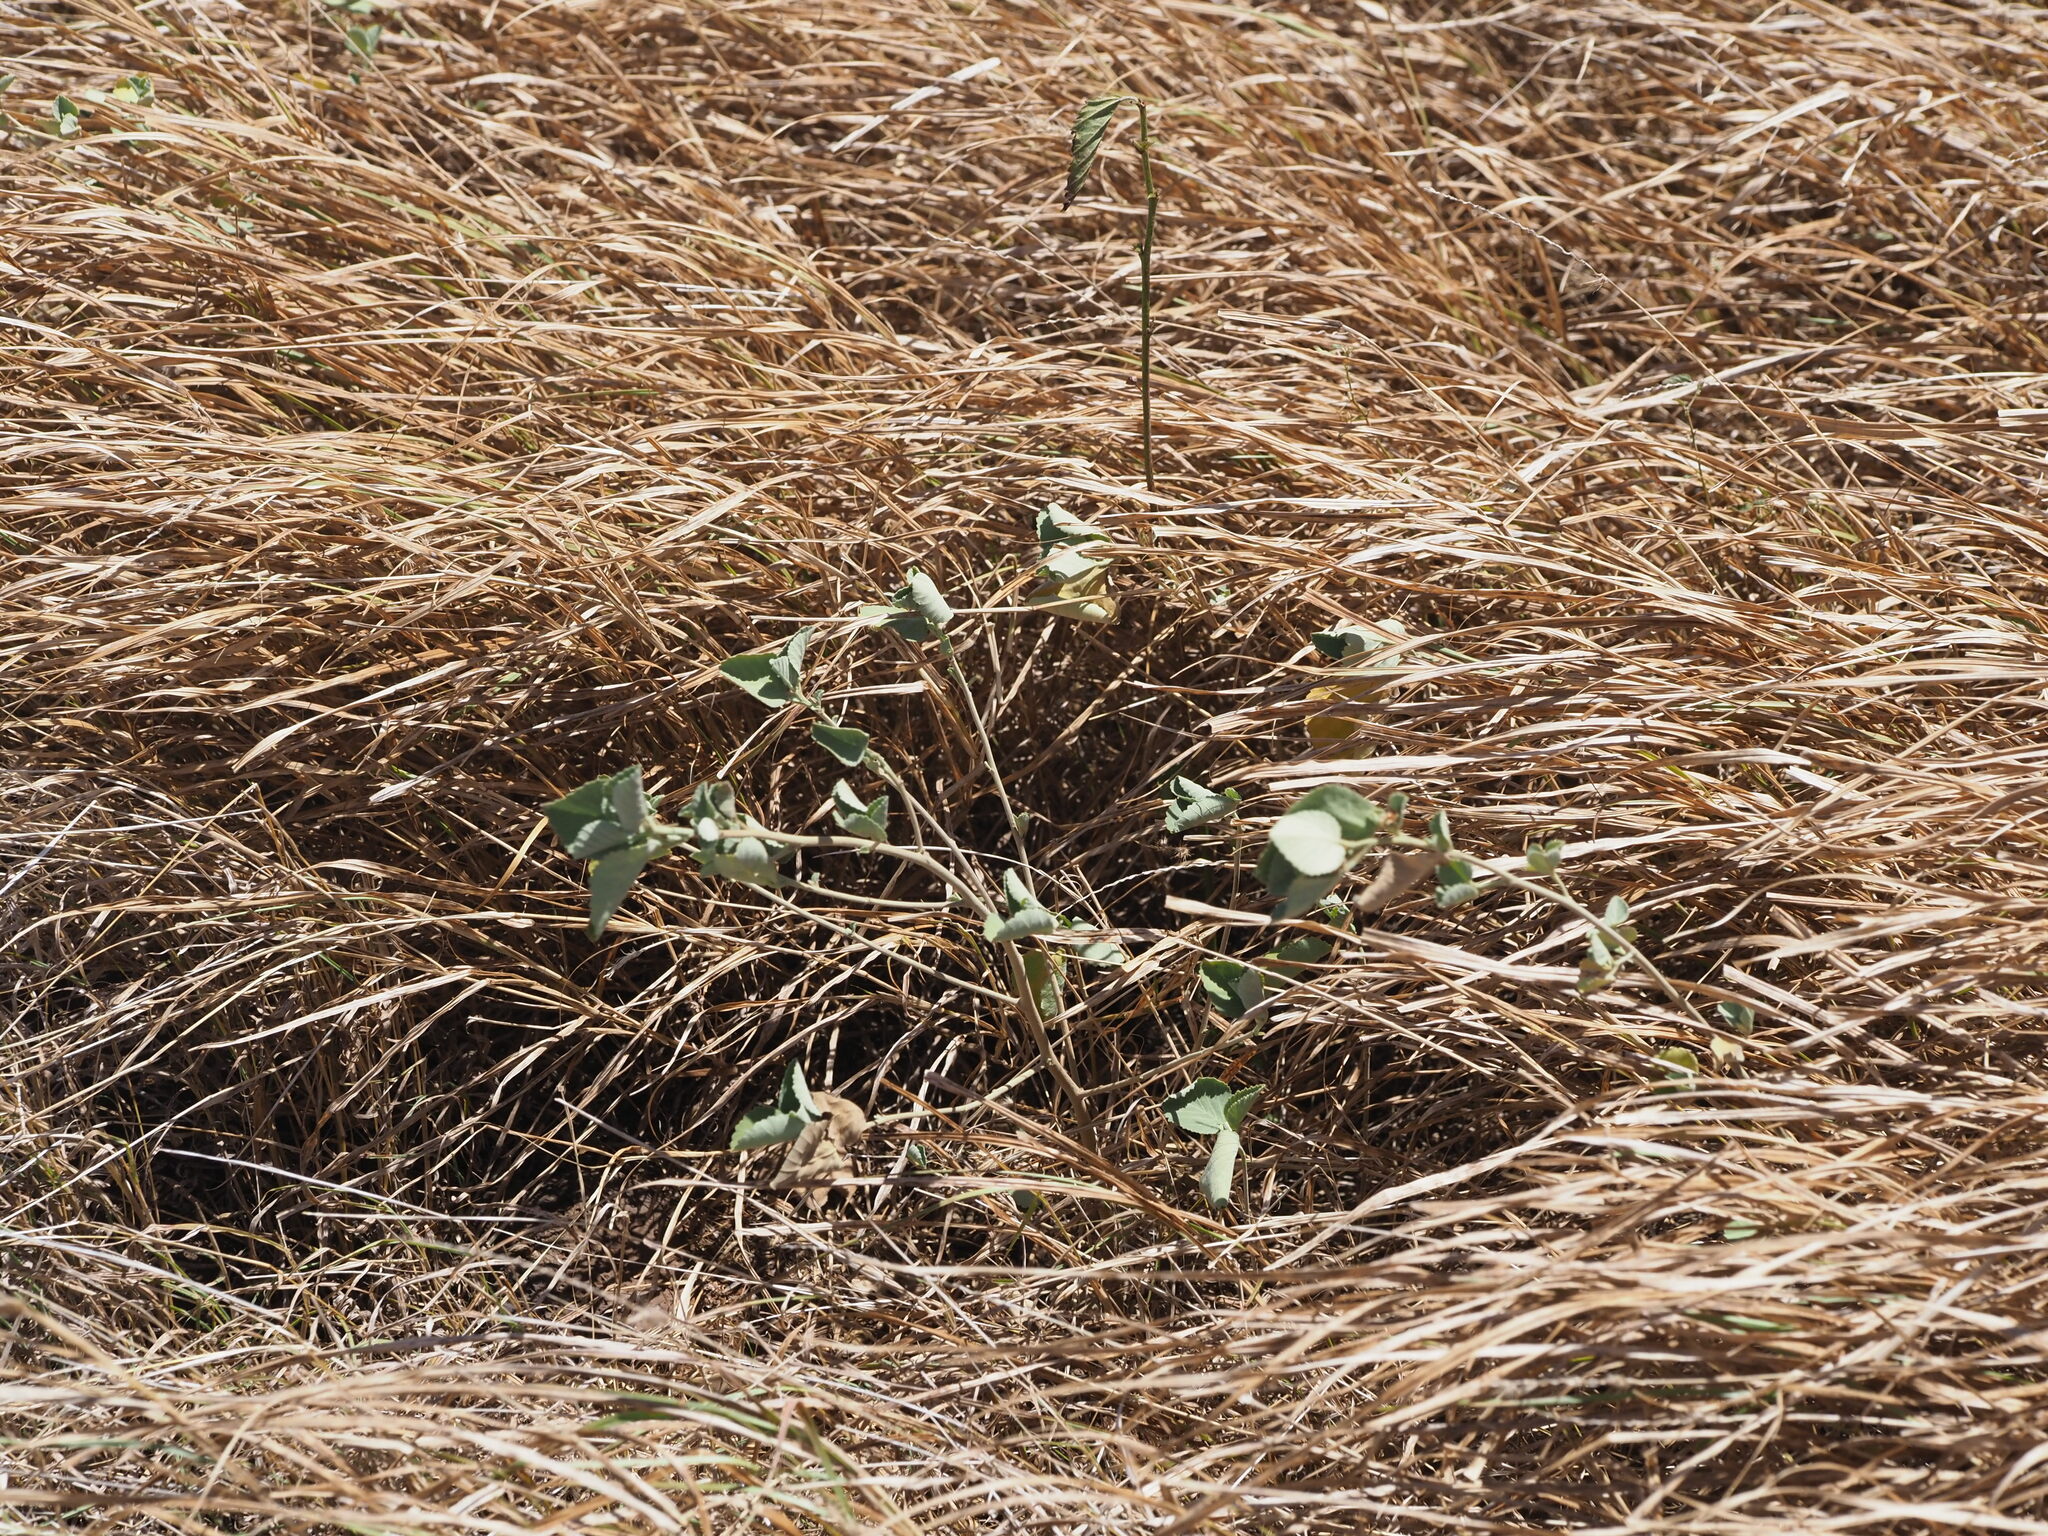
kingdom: Plantae
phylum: Tracheophyta
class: Magnoliopsida
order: Malvales
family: Malvaceae
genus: Sida
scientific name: Sida fallax
